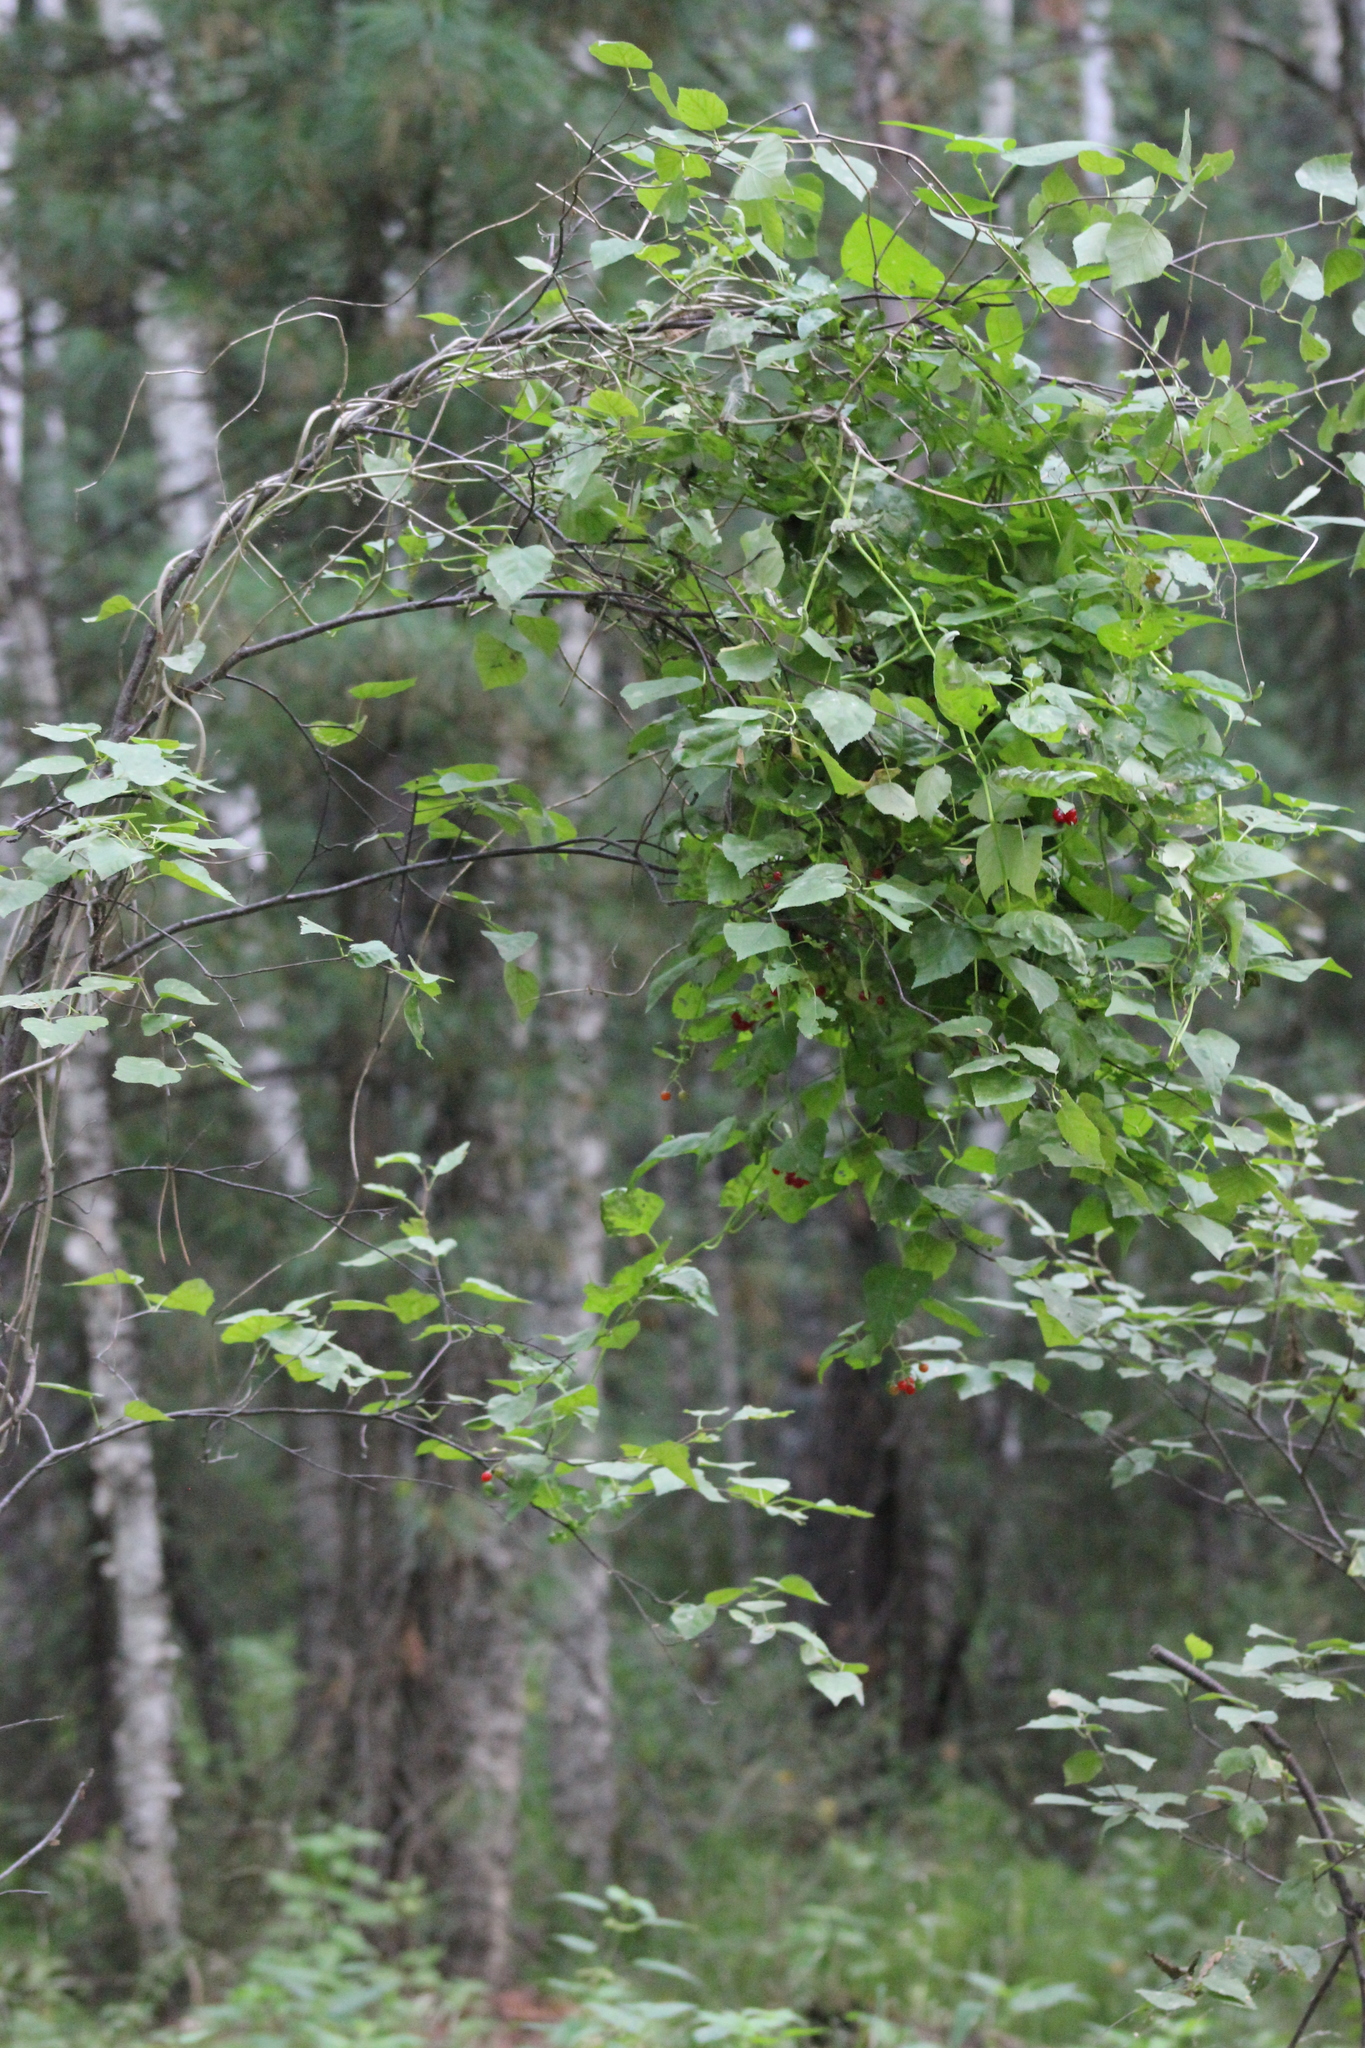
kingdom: Plantae
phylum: Tracheophyta
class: Magnoliopsida
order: Solanales
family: Solanaceae
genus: Solanum
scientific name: Solanum dulcamara
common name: Climbing nightshade
